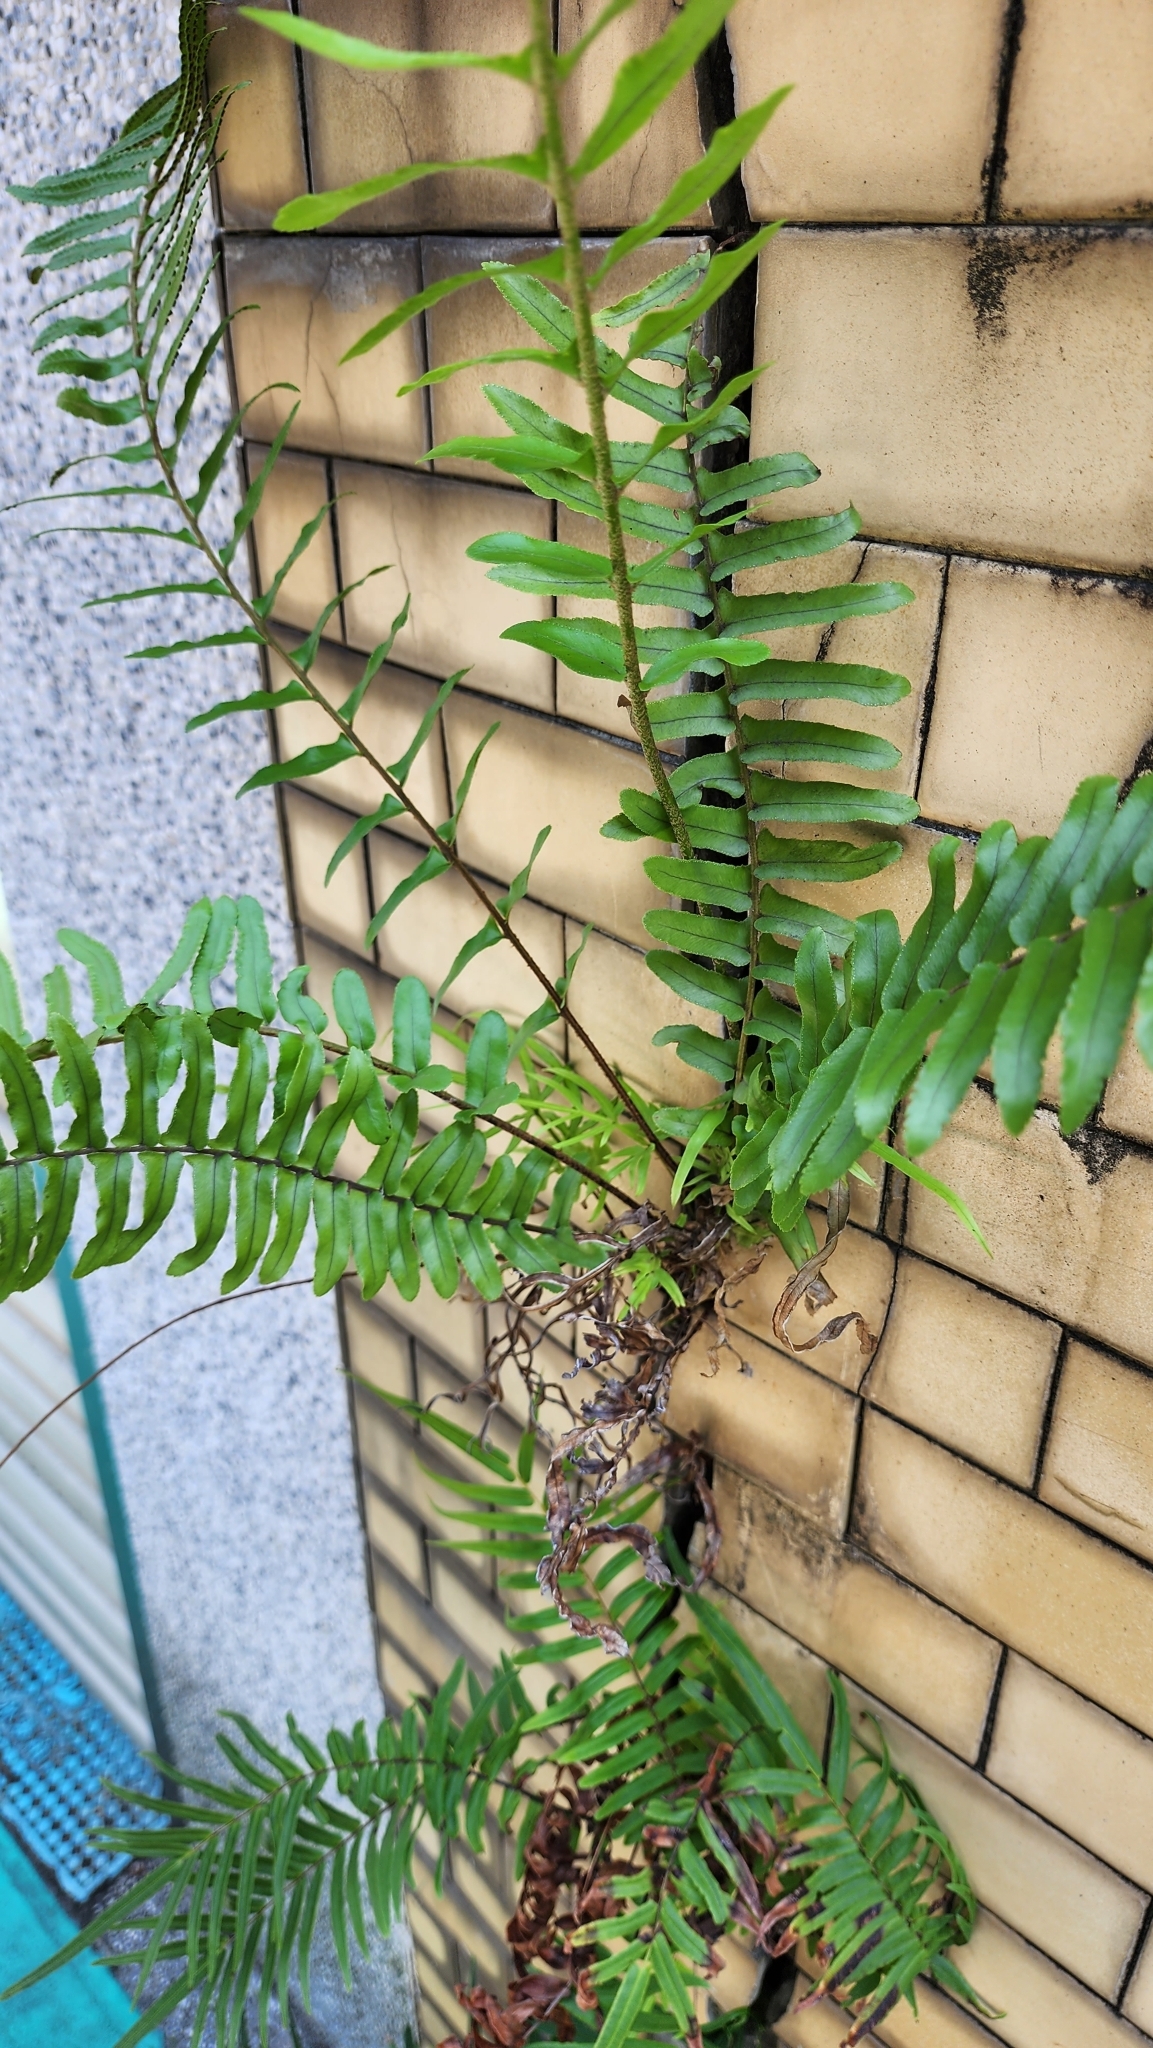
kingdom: Plantae
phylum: Tracheophyta
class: Polypodiopsida
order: Polypodiales
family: Nephrolepidaceae
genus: Nephrolepis
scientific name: Nephrolepis cordifolia
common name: Narrow swordfern
